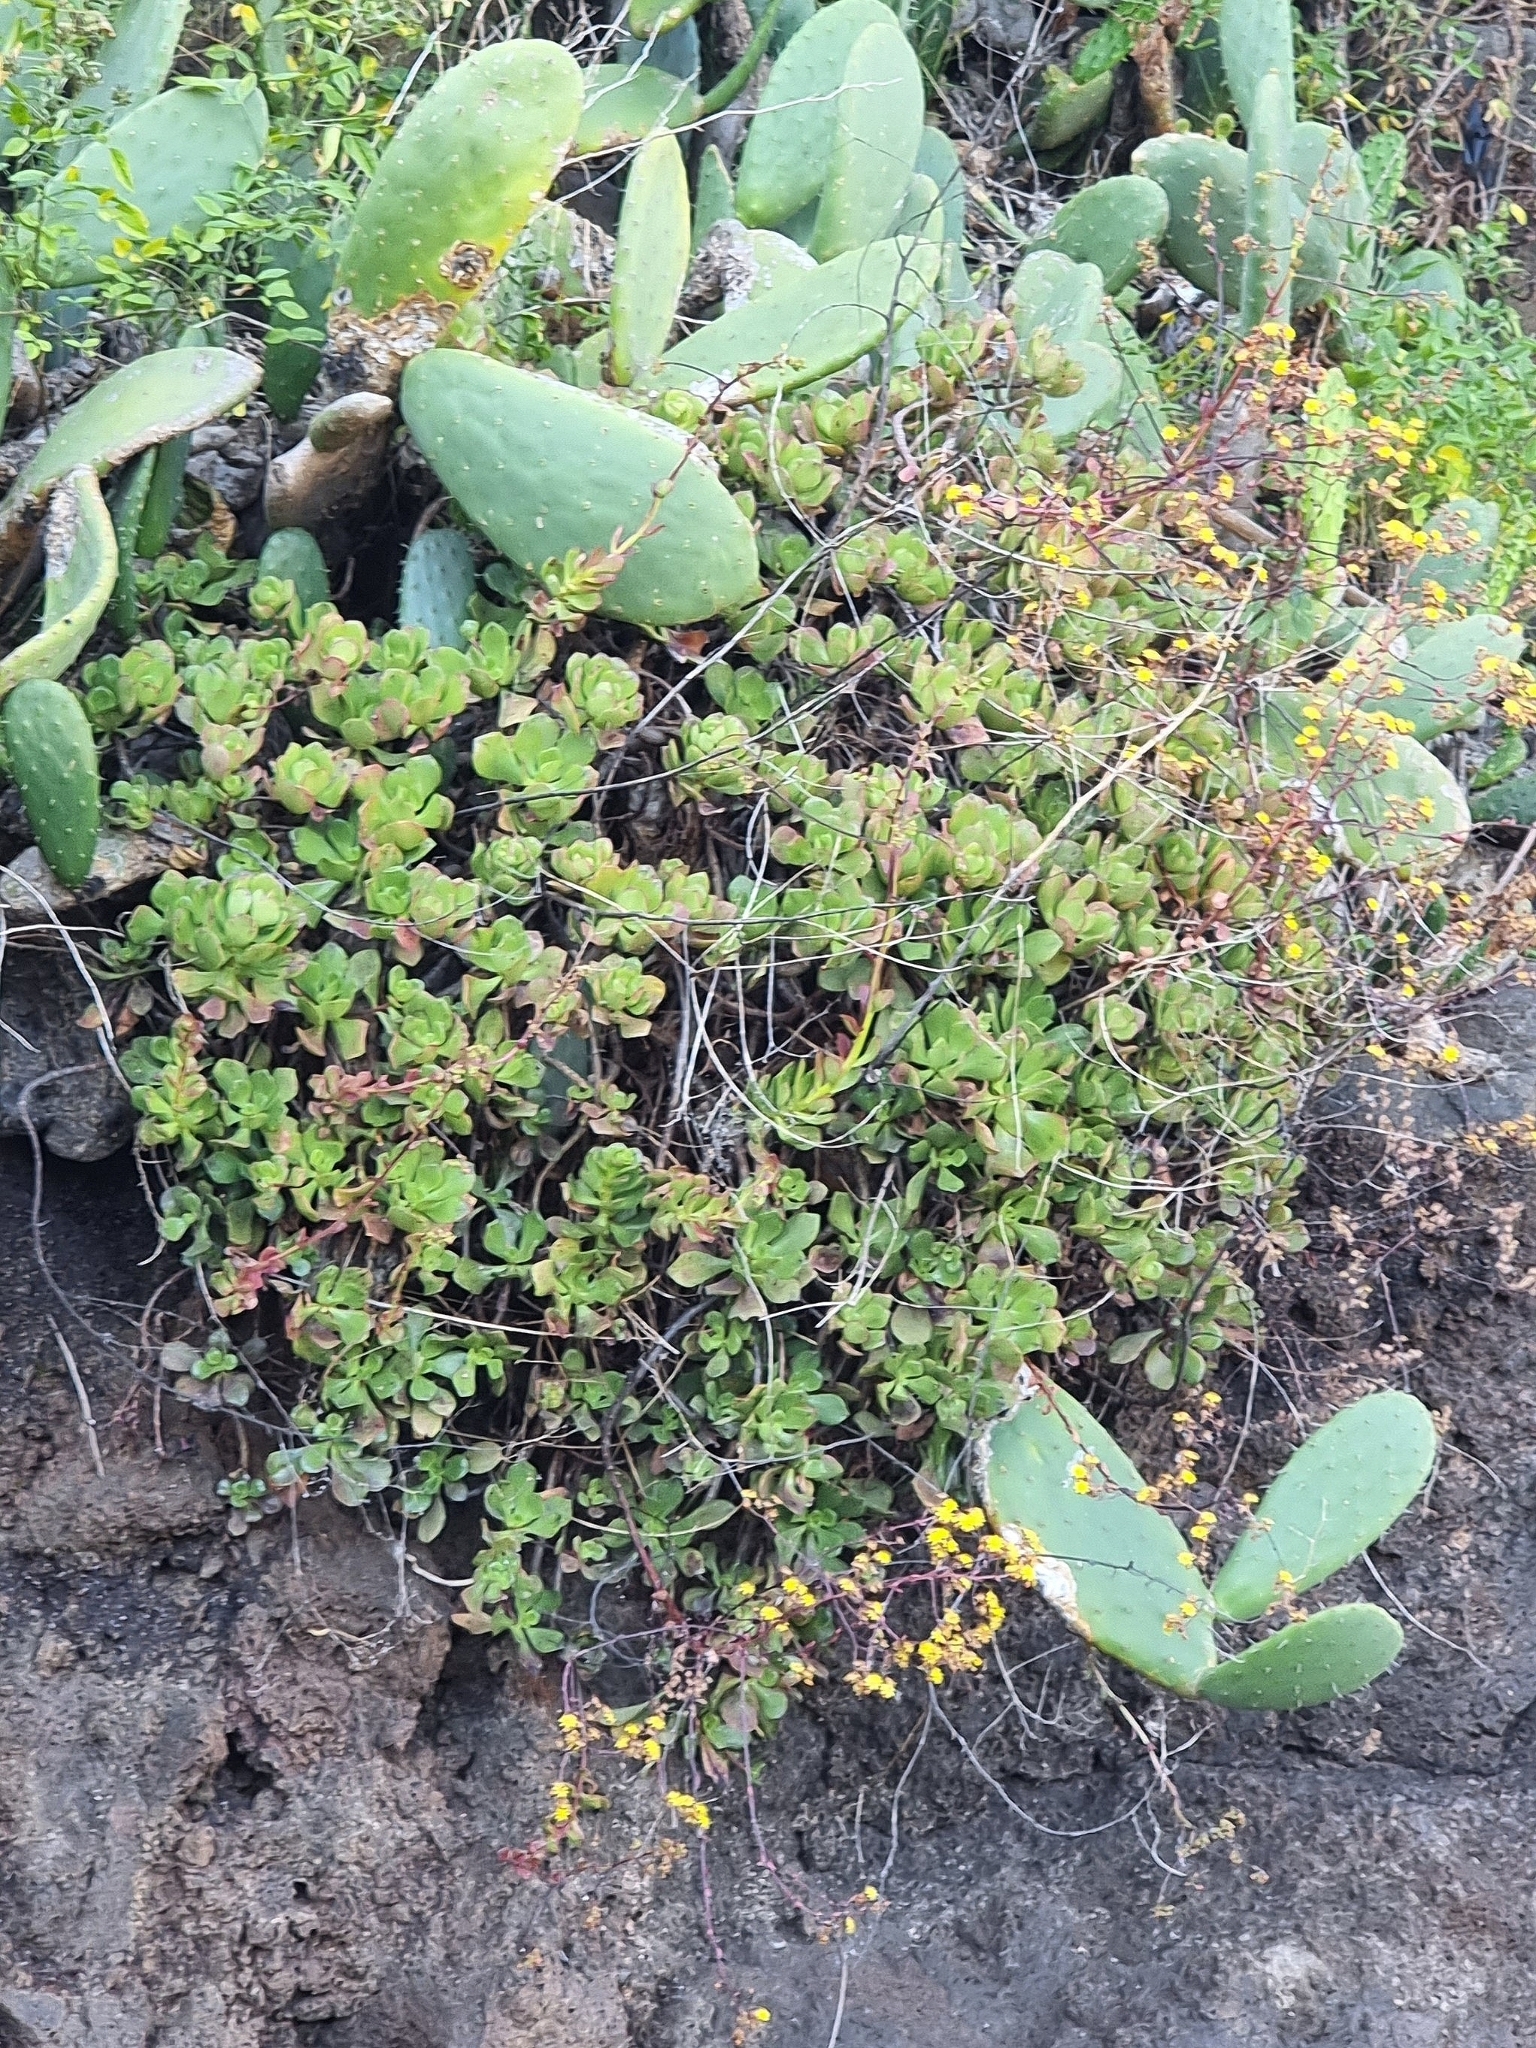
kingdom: Plantae
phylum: Tracheophyta
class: Magnoliopsida
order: Saxifragales
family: Crassulaceae
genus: Aeonium
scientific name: Aeonium glutinosum
